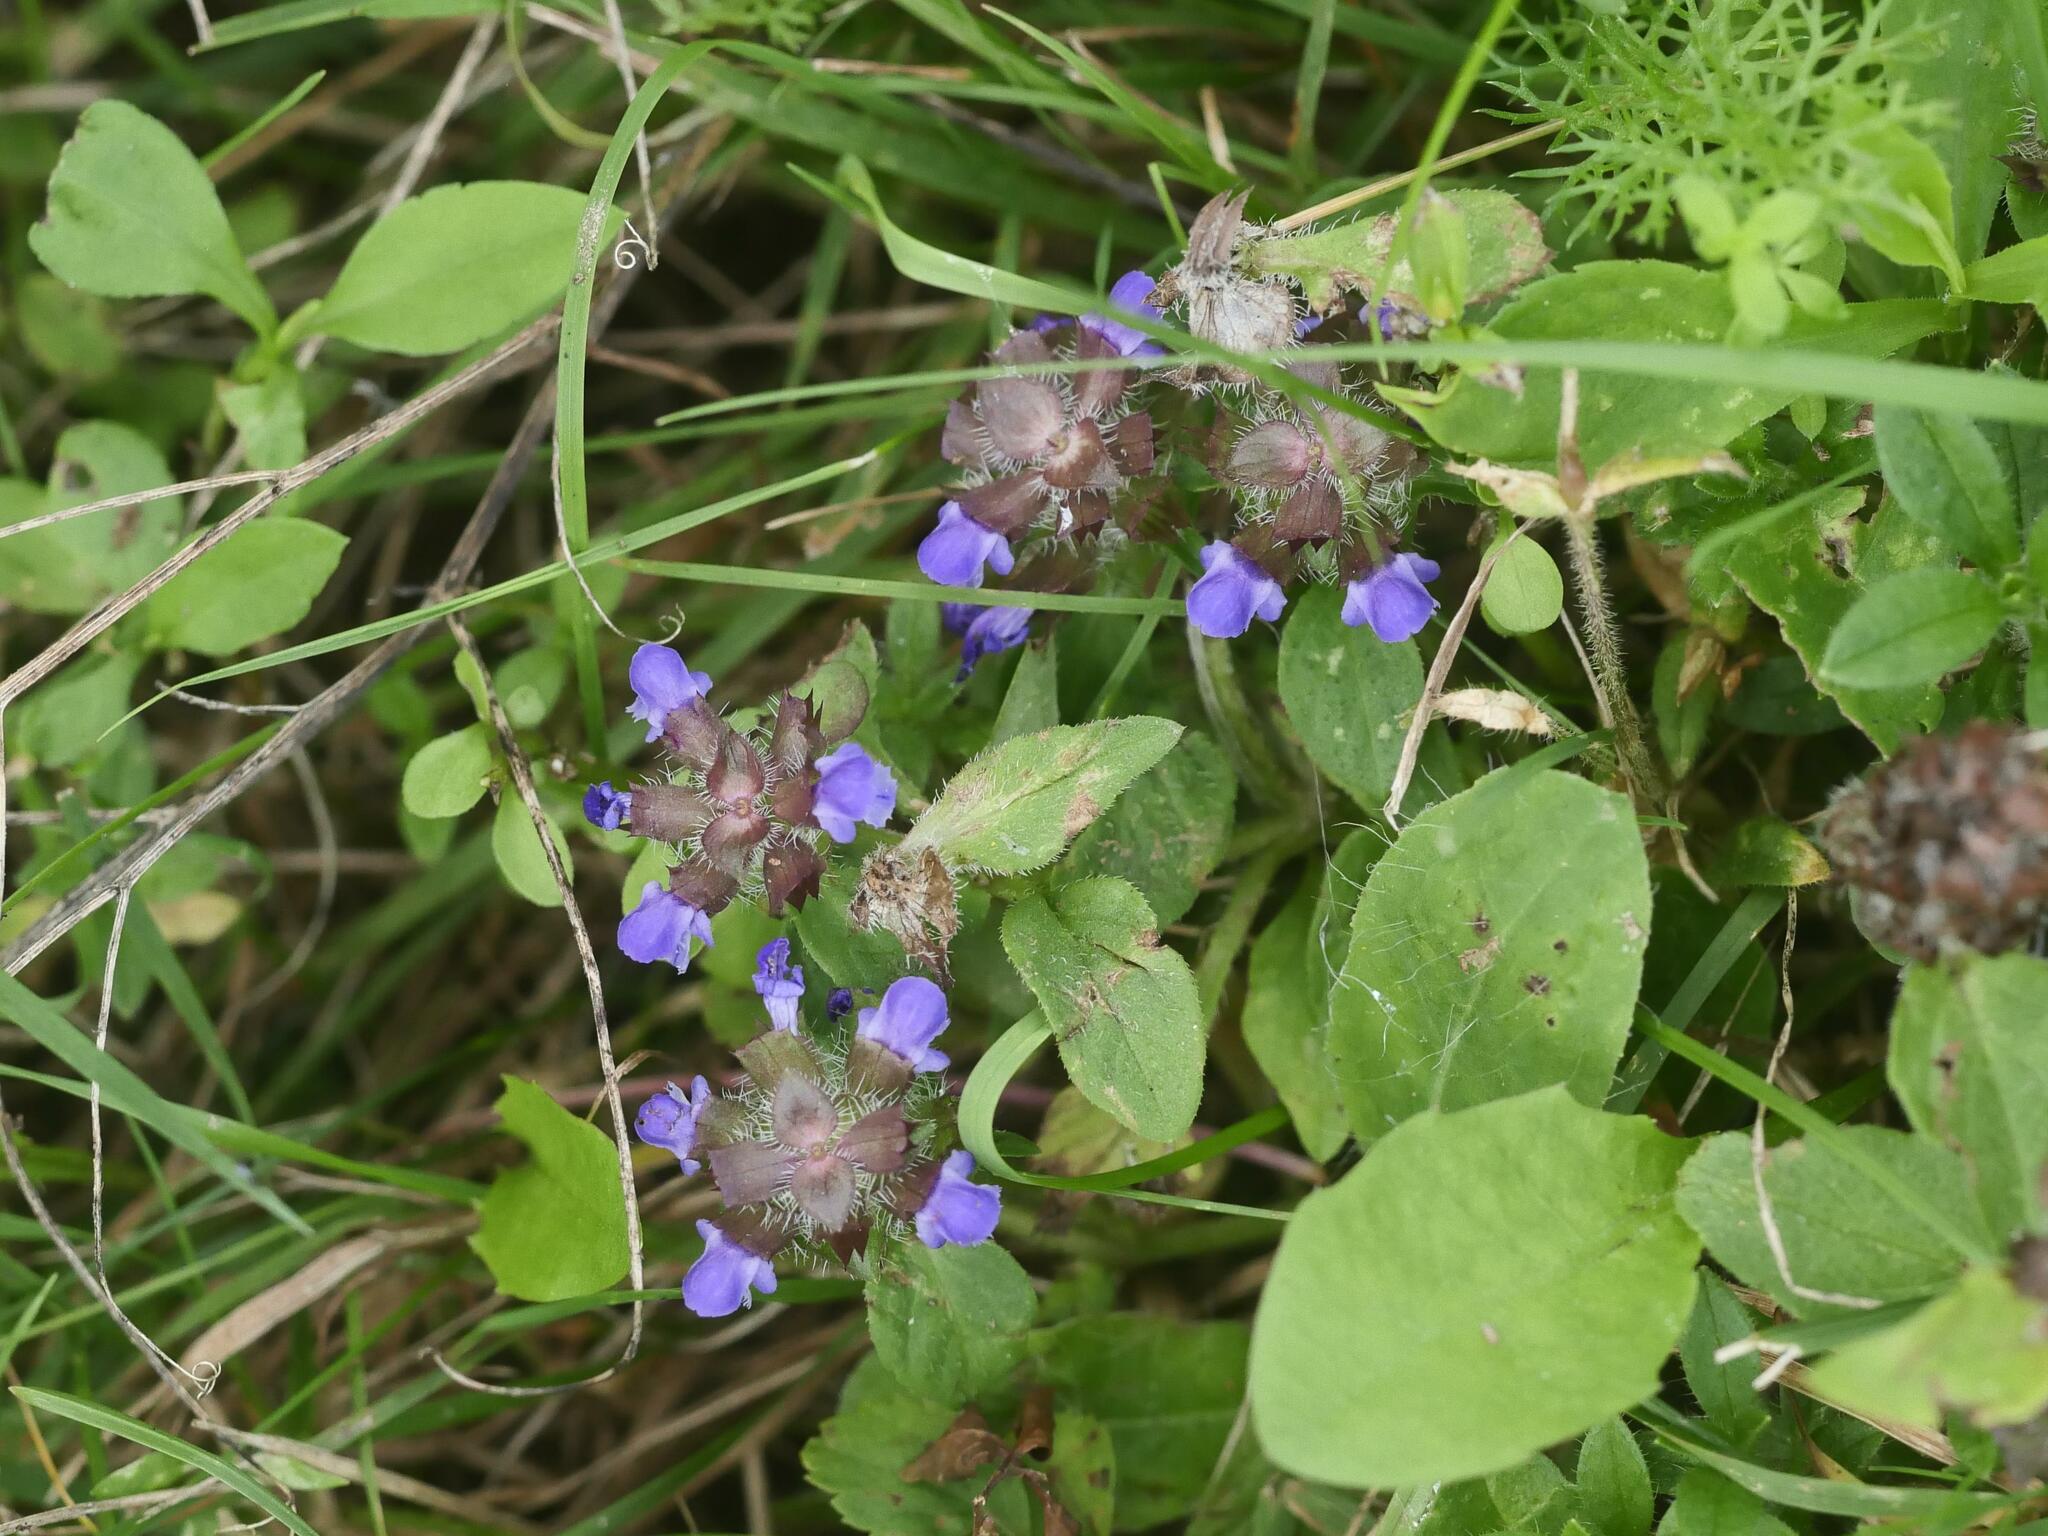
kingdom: Plantae
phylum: Tracheophyta
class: Magnoliopsida
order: Lamiales
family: Lamiaceae
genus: Prunella
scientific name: Prunella vulgaris
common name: Heal-all
